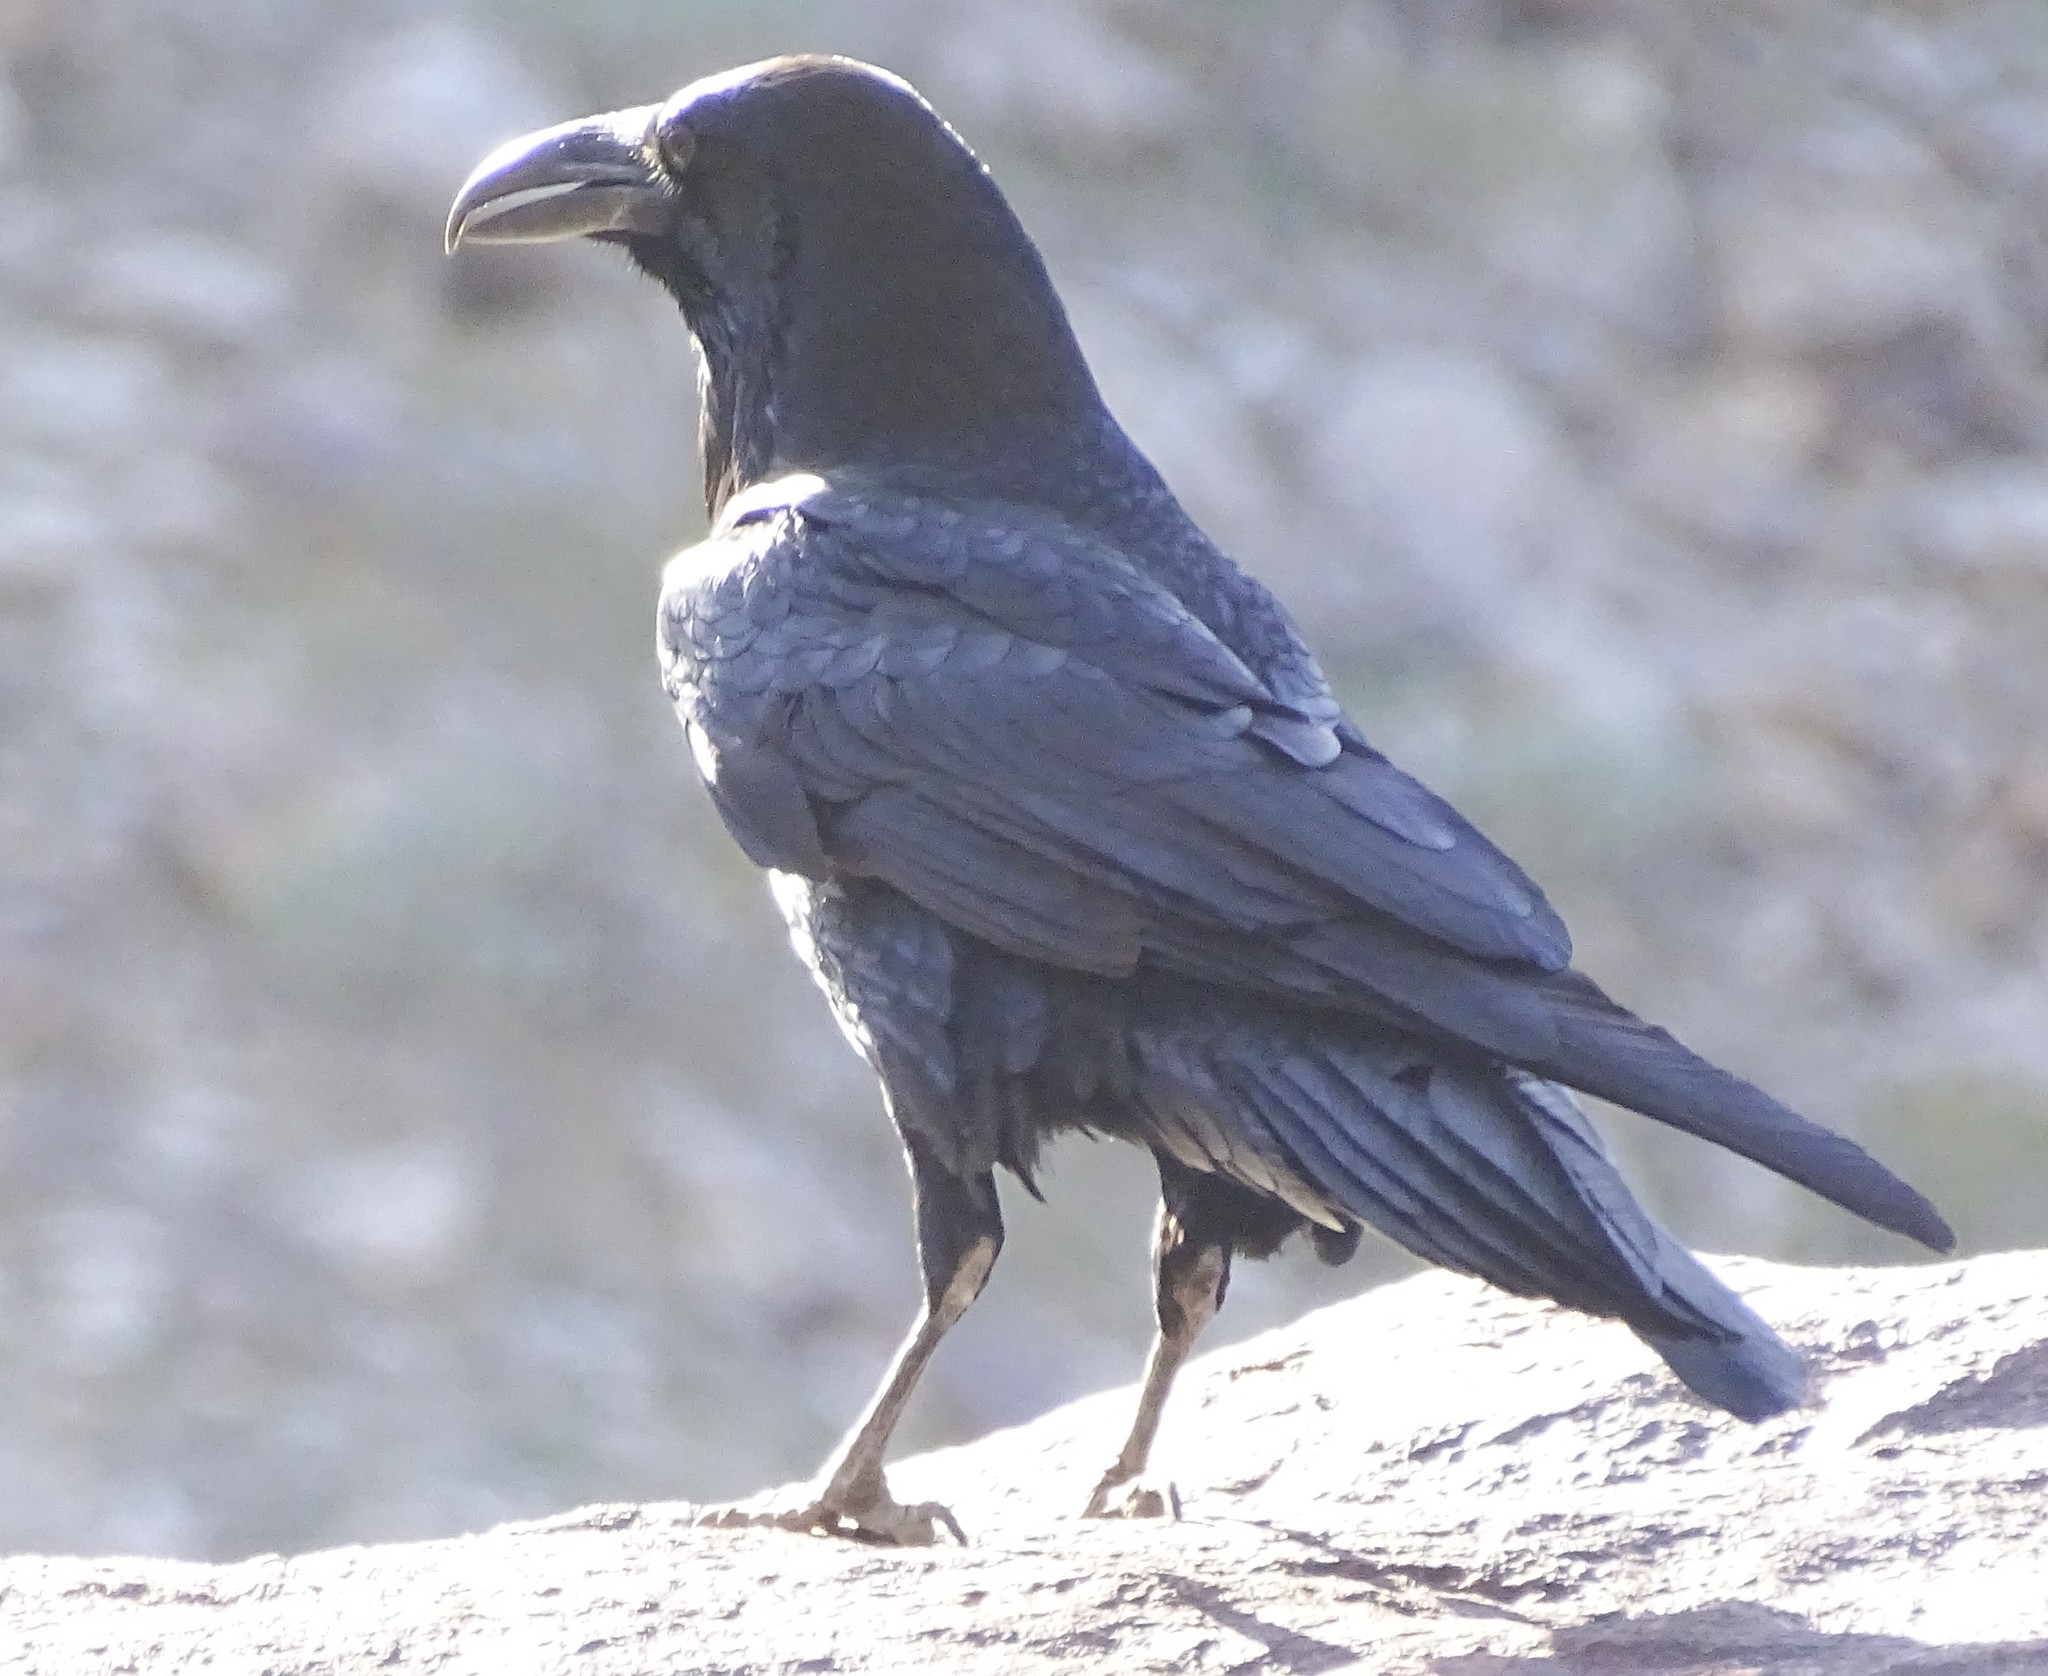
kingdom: Animalia
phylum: Chordata
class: Aves
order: Passeriformes
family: Corvidae
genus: Corvus
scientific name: Corvus corax
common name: Common raven
